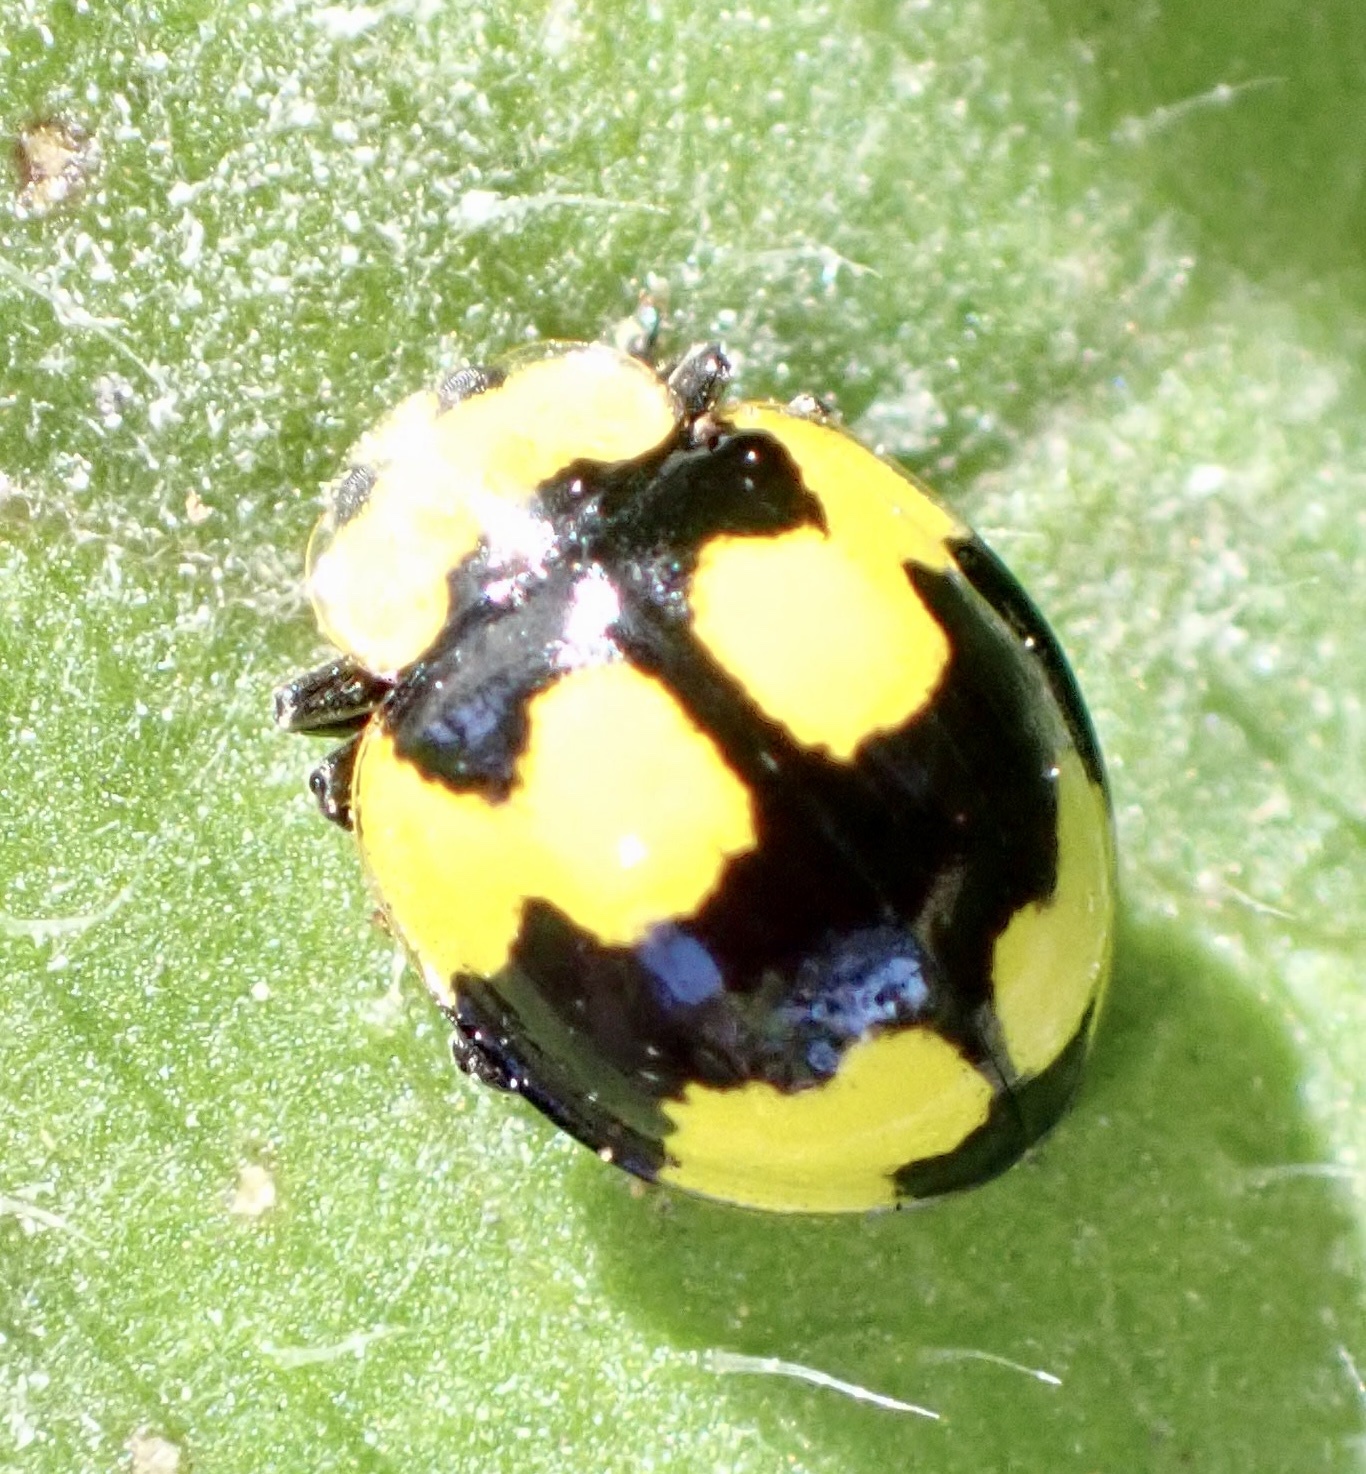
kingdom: Animalia
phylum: Arthropoda
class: Insecta
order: Coleoptera
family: Coccinellidae
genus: Illeis
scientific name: Illeis galbula
